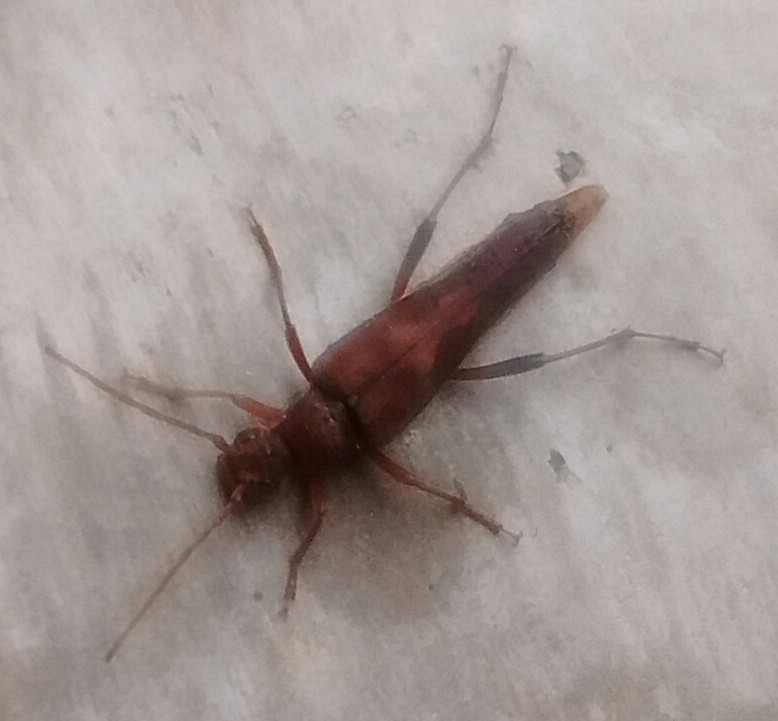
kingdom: Animalia
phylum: Arthropoda
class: Insecta
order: Coleoptera
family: Cerambycidae
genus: Bellamira
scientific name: Bellamira scalaris
